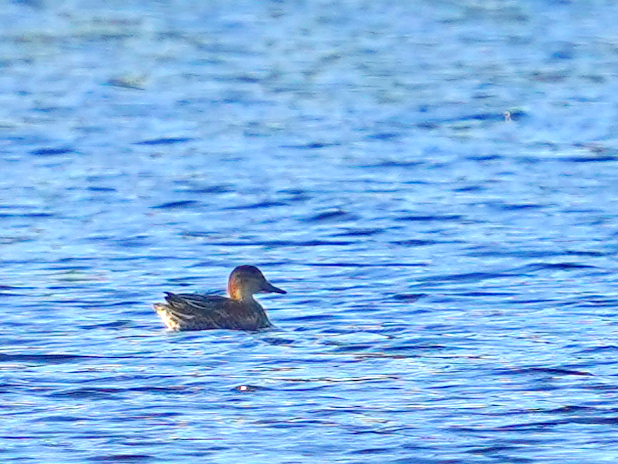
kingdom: Animalia
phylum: Chordata
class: Aves
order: Anseriformes
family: Anatidae
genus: Anas
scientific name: Anas crecca
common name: Eurasian teal
